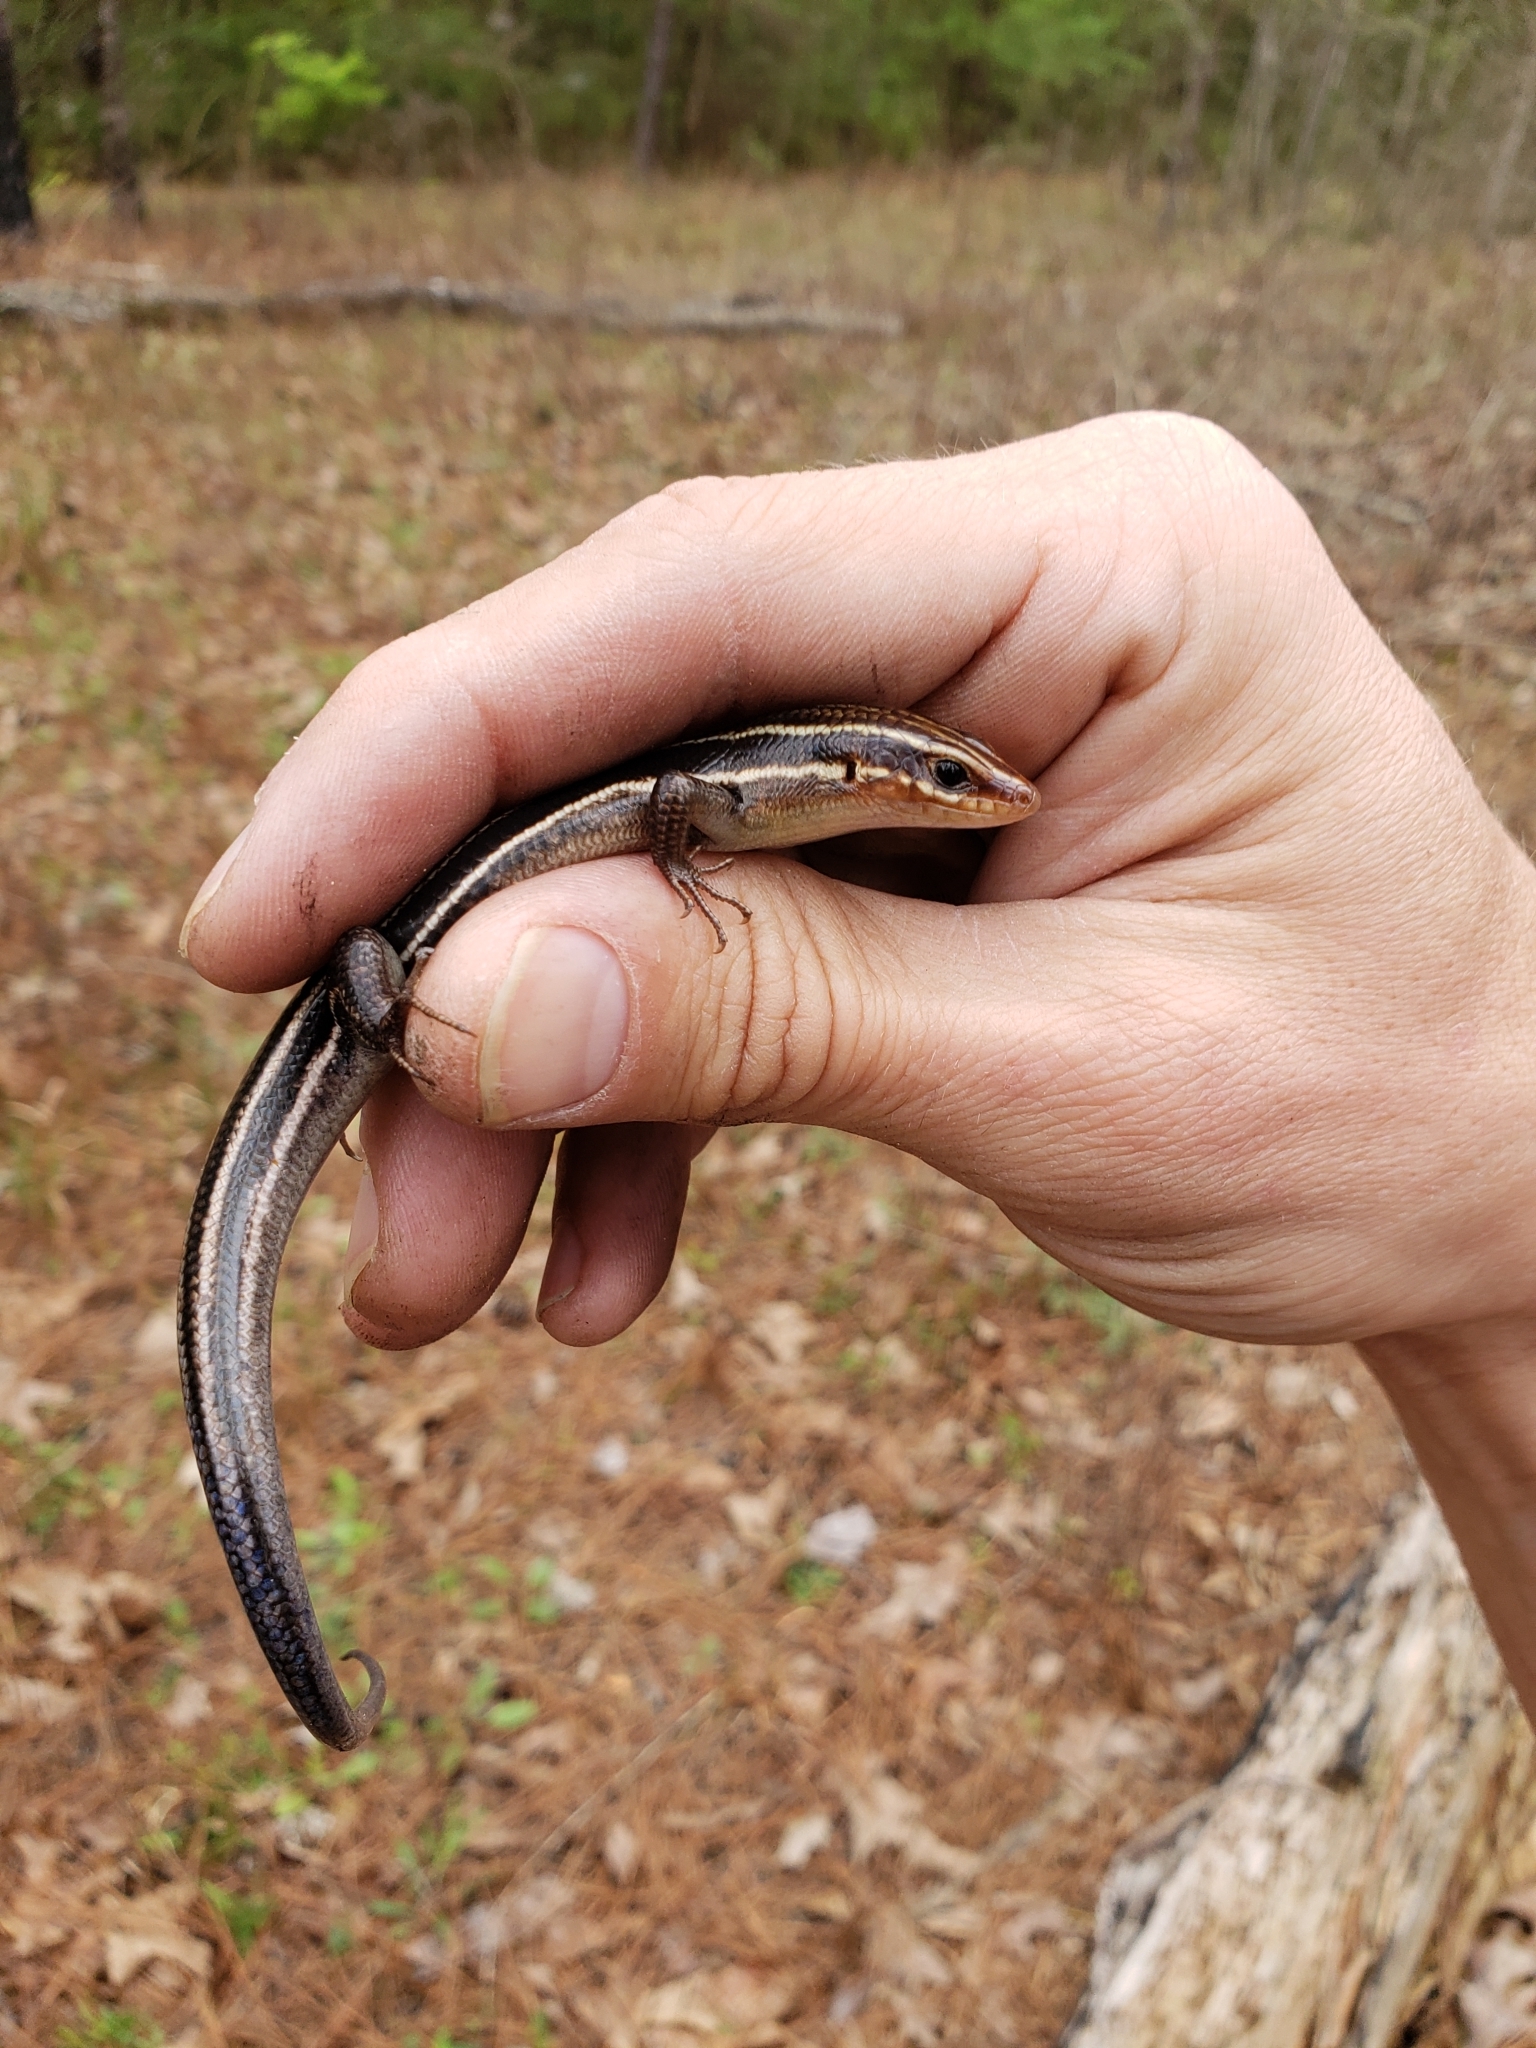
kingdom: Animalia
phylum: Chordata
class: Squamata
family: Scincidae
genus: Plestiodon
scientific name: Plestiodon inexpectatus
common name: Southeastern five-lined skink
